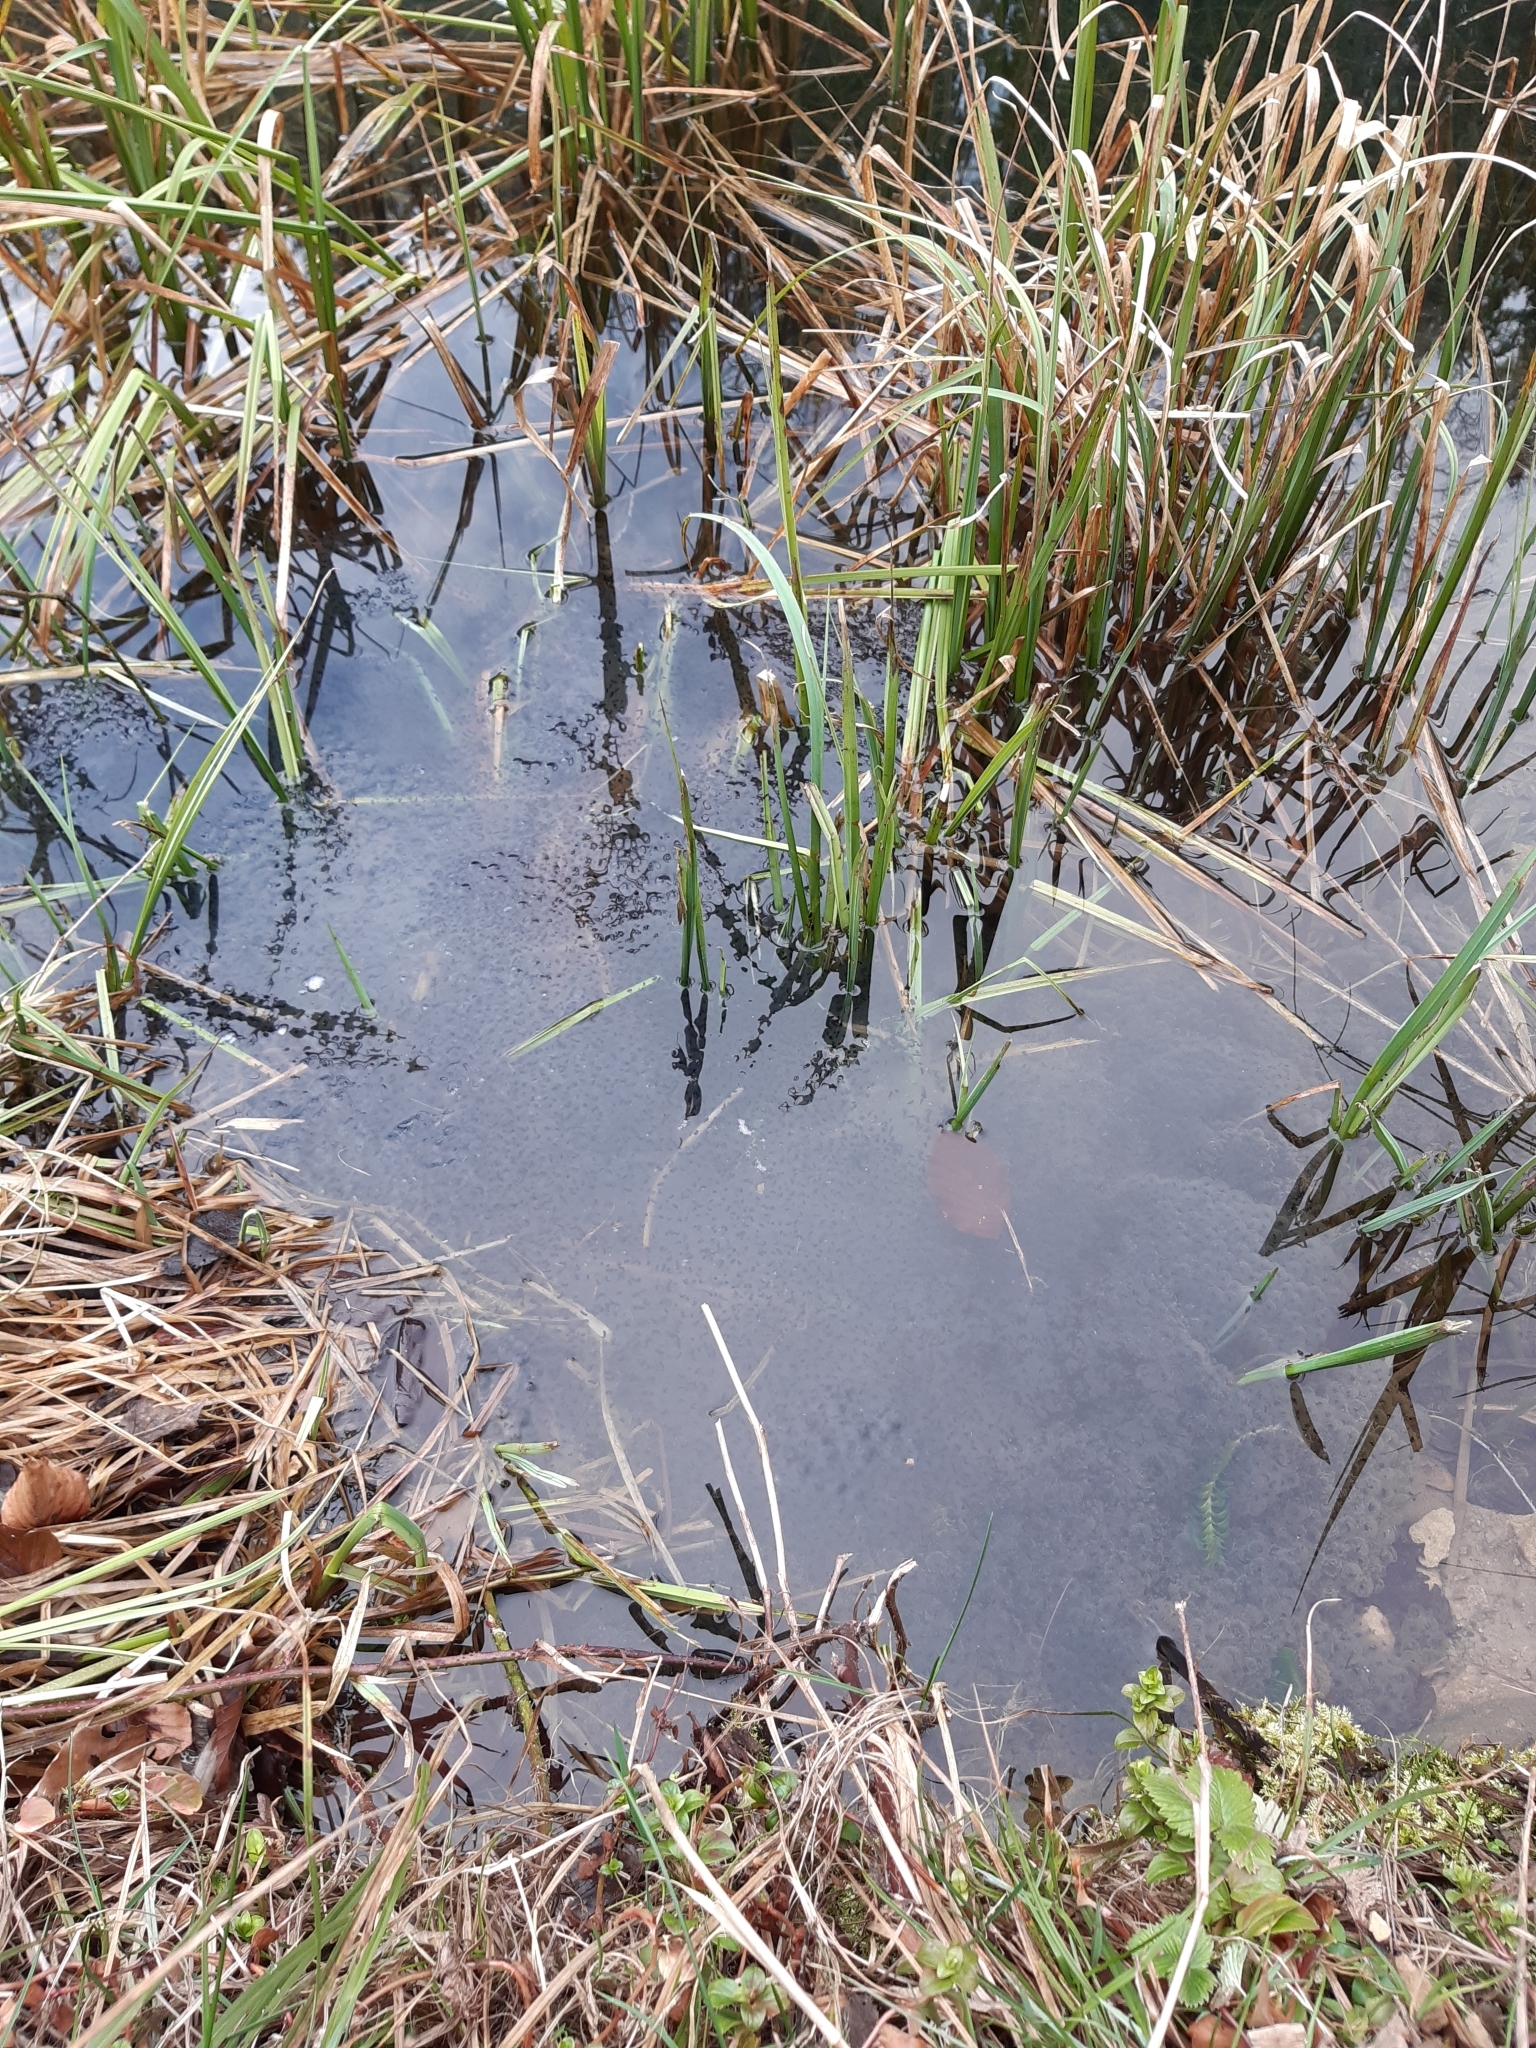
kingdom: Animalia
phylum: Chordata
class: Amphibia
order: Anura
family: Ranidae
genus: Rana
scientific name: Rana temporaria
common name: Common frog
